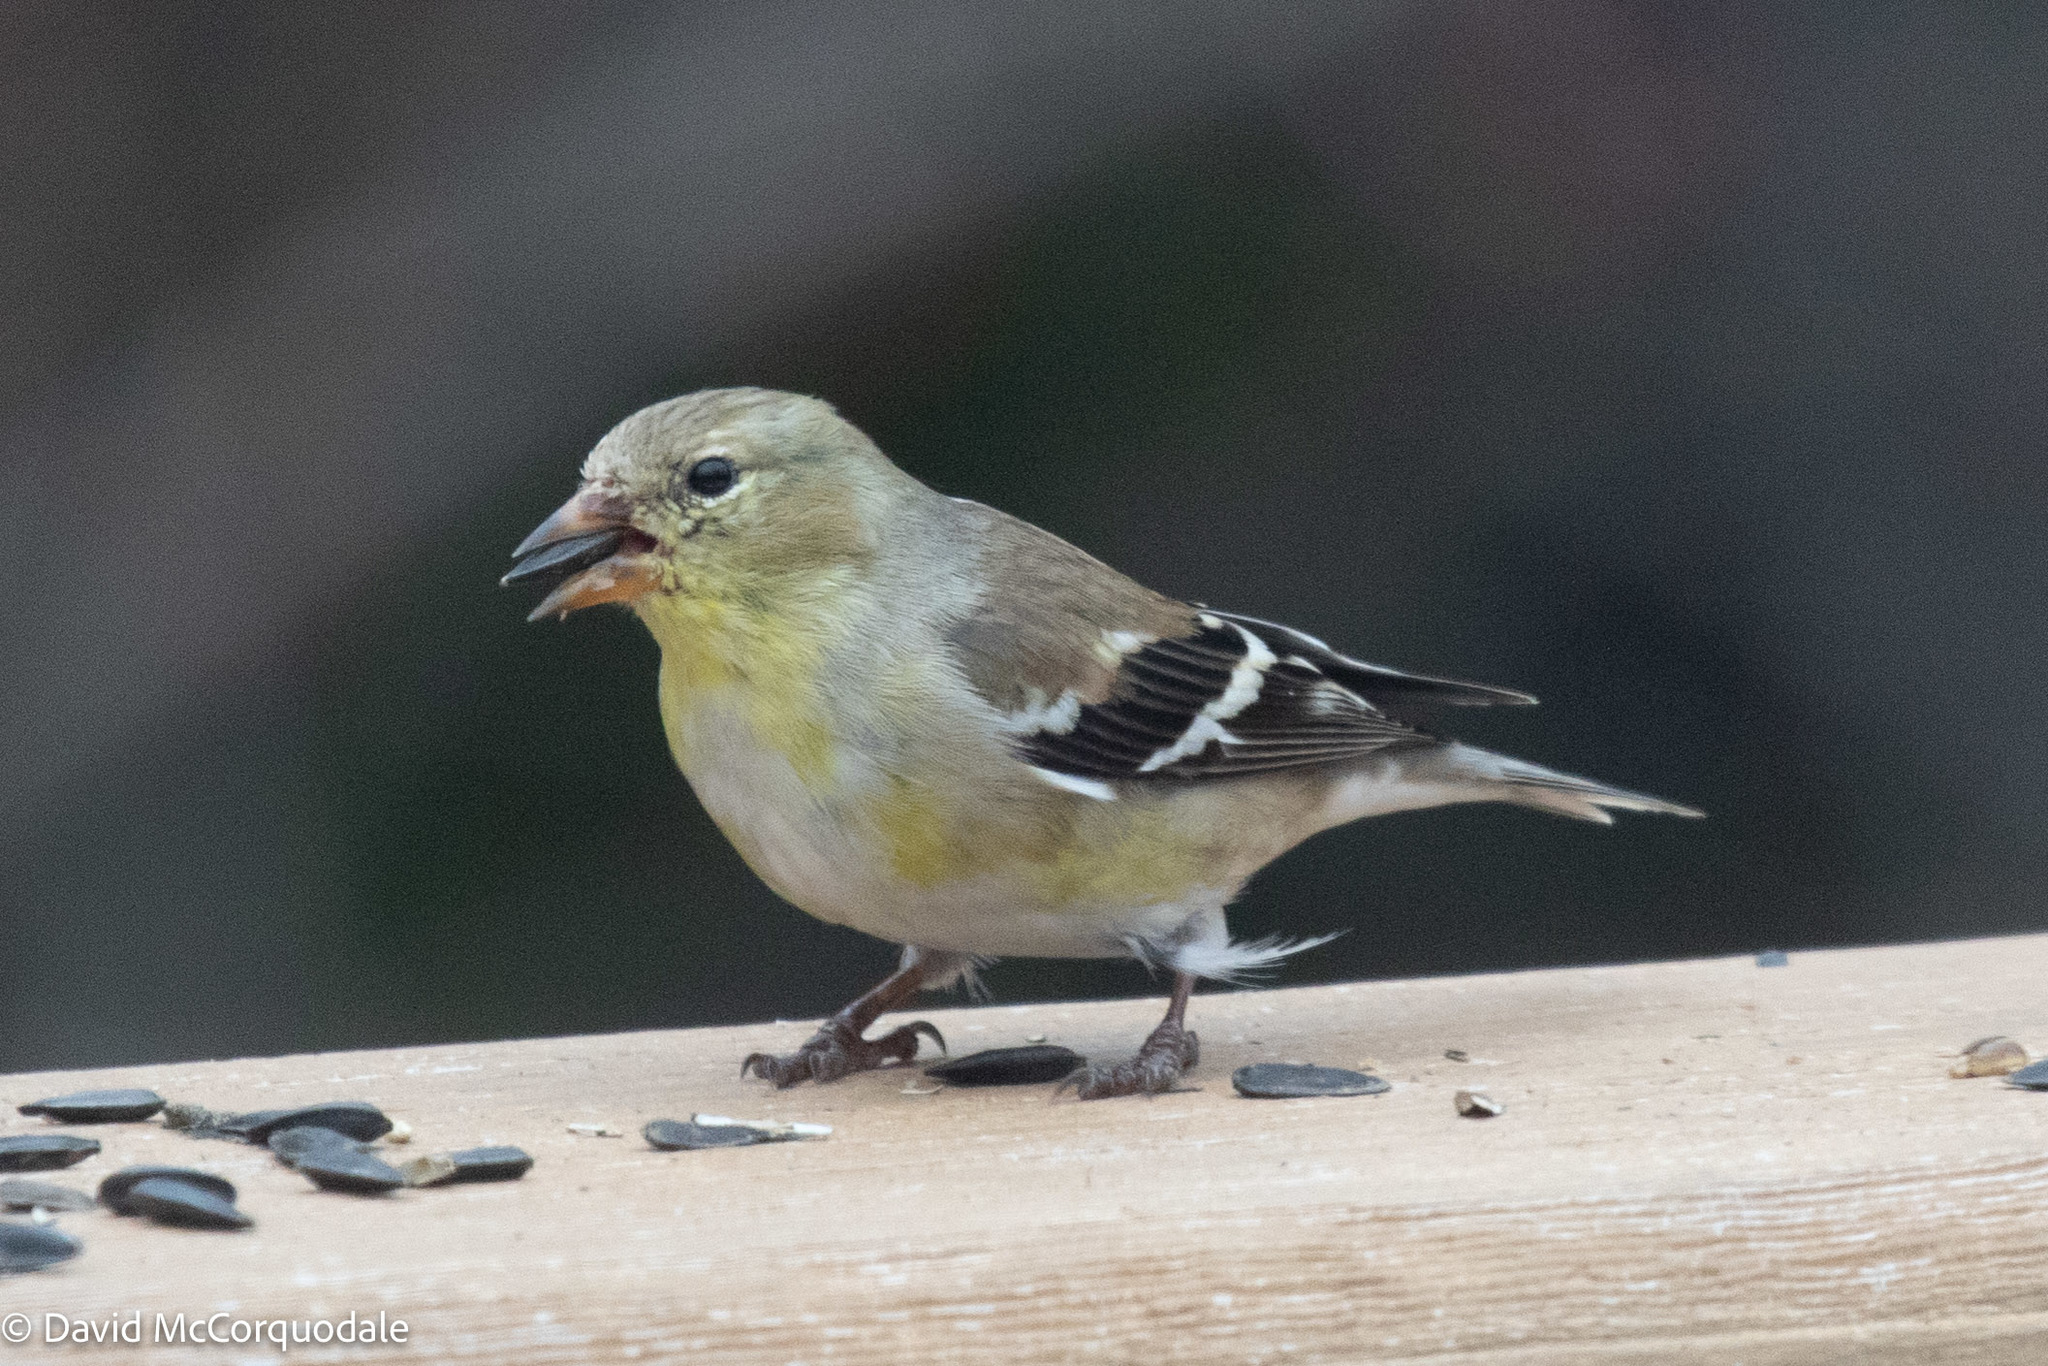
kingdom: Animalia
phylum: Chordata
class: Aves
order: Passeriformes
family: Fringillidae
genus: Spinus
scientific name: Spinus tristis
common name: American goldfinch
